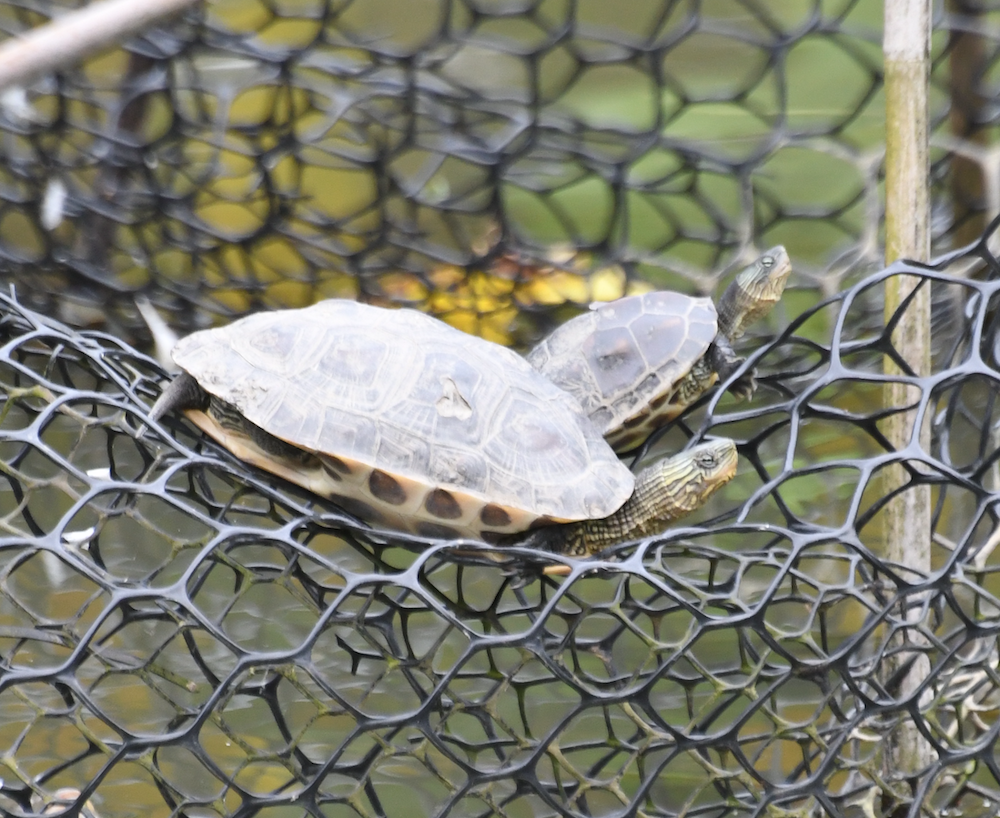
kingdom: Animalia
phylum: Chordata
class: Testudines
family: Geoemydidae
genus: Mauremys
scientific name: Mauremys sinensis
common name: Chinese stripe-necked turtle
